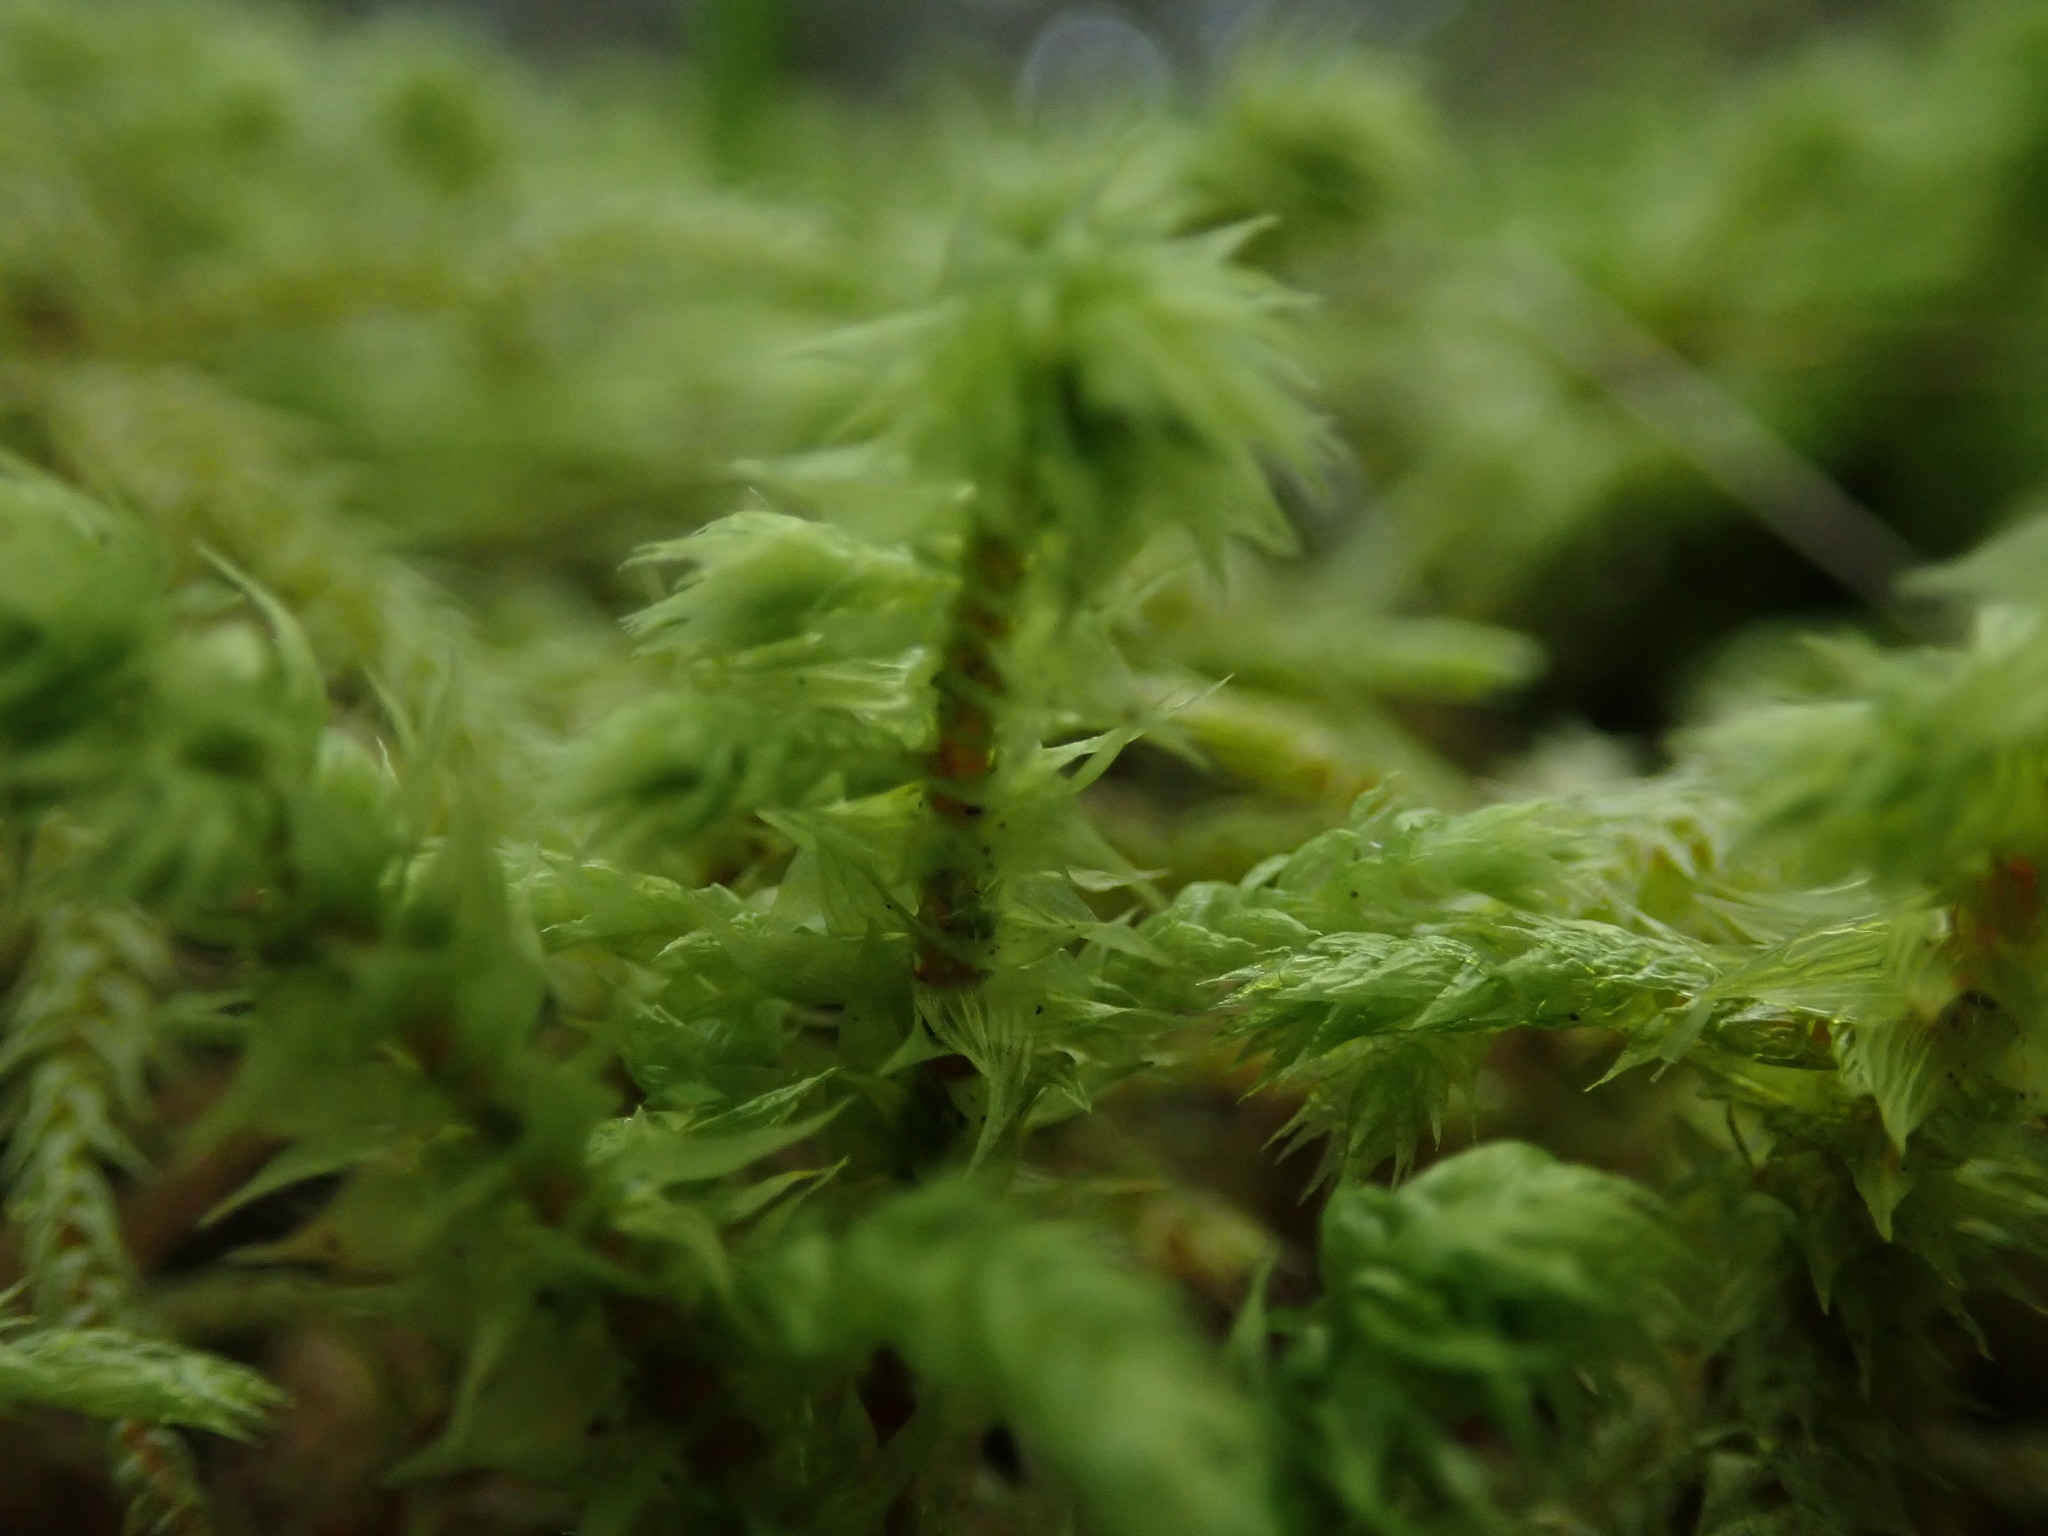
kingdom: Plantae
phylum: Bryophyta
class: Bryopsida
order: Hypnales
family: Hylocomiaceae
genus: Hylocomiadelphus
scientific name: Hylocomiadelphus triquetrus
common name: Rough goose neck moss
